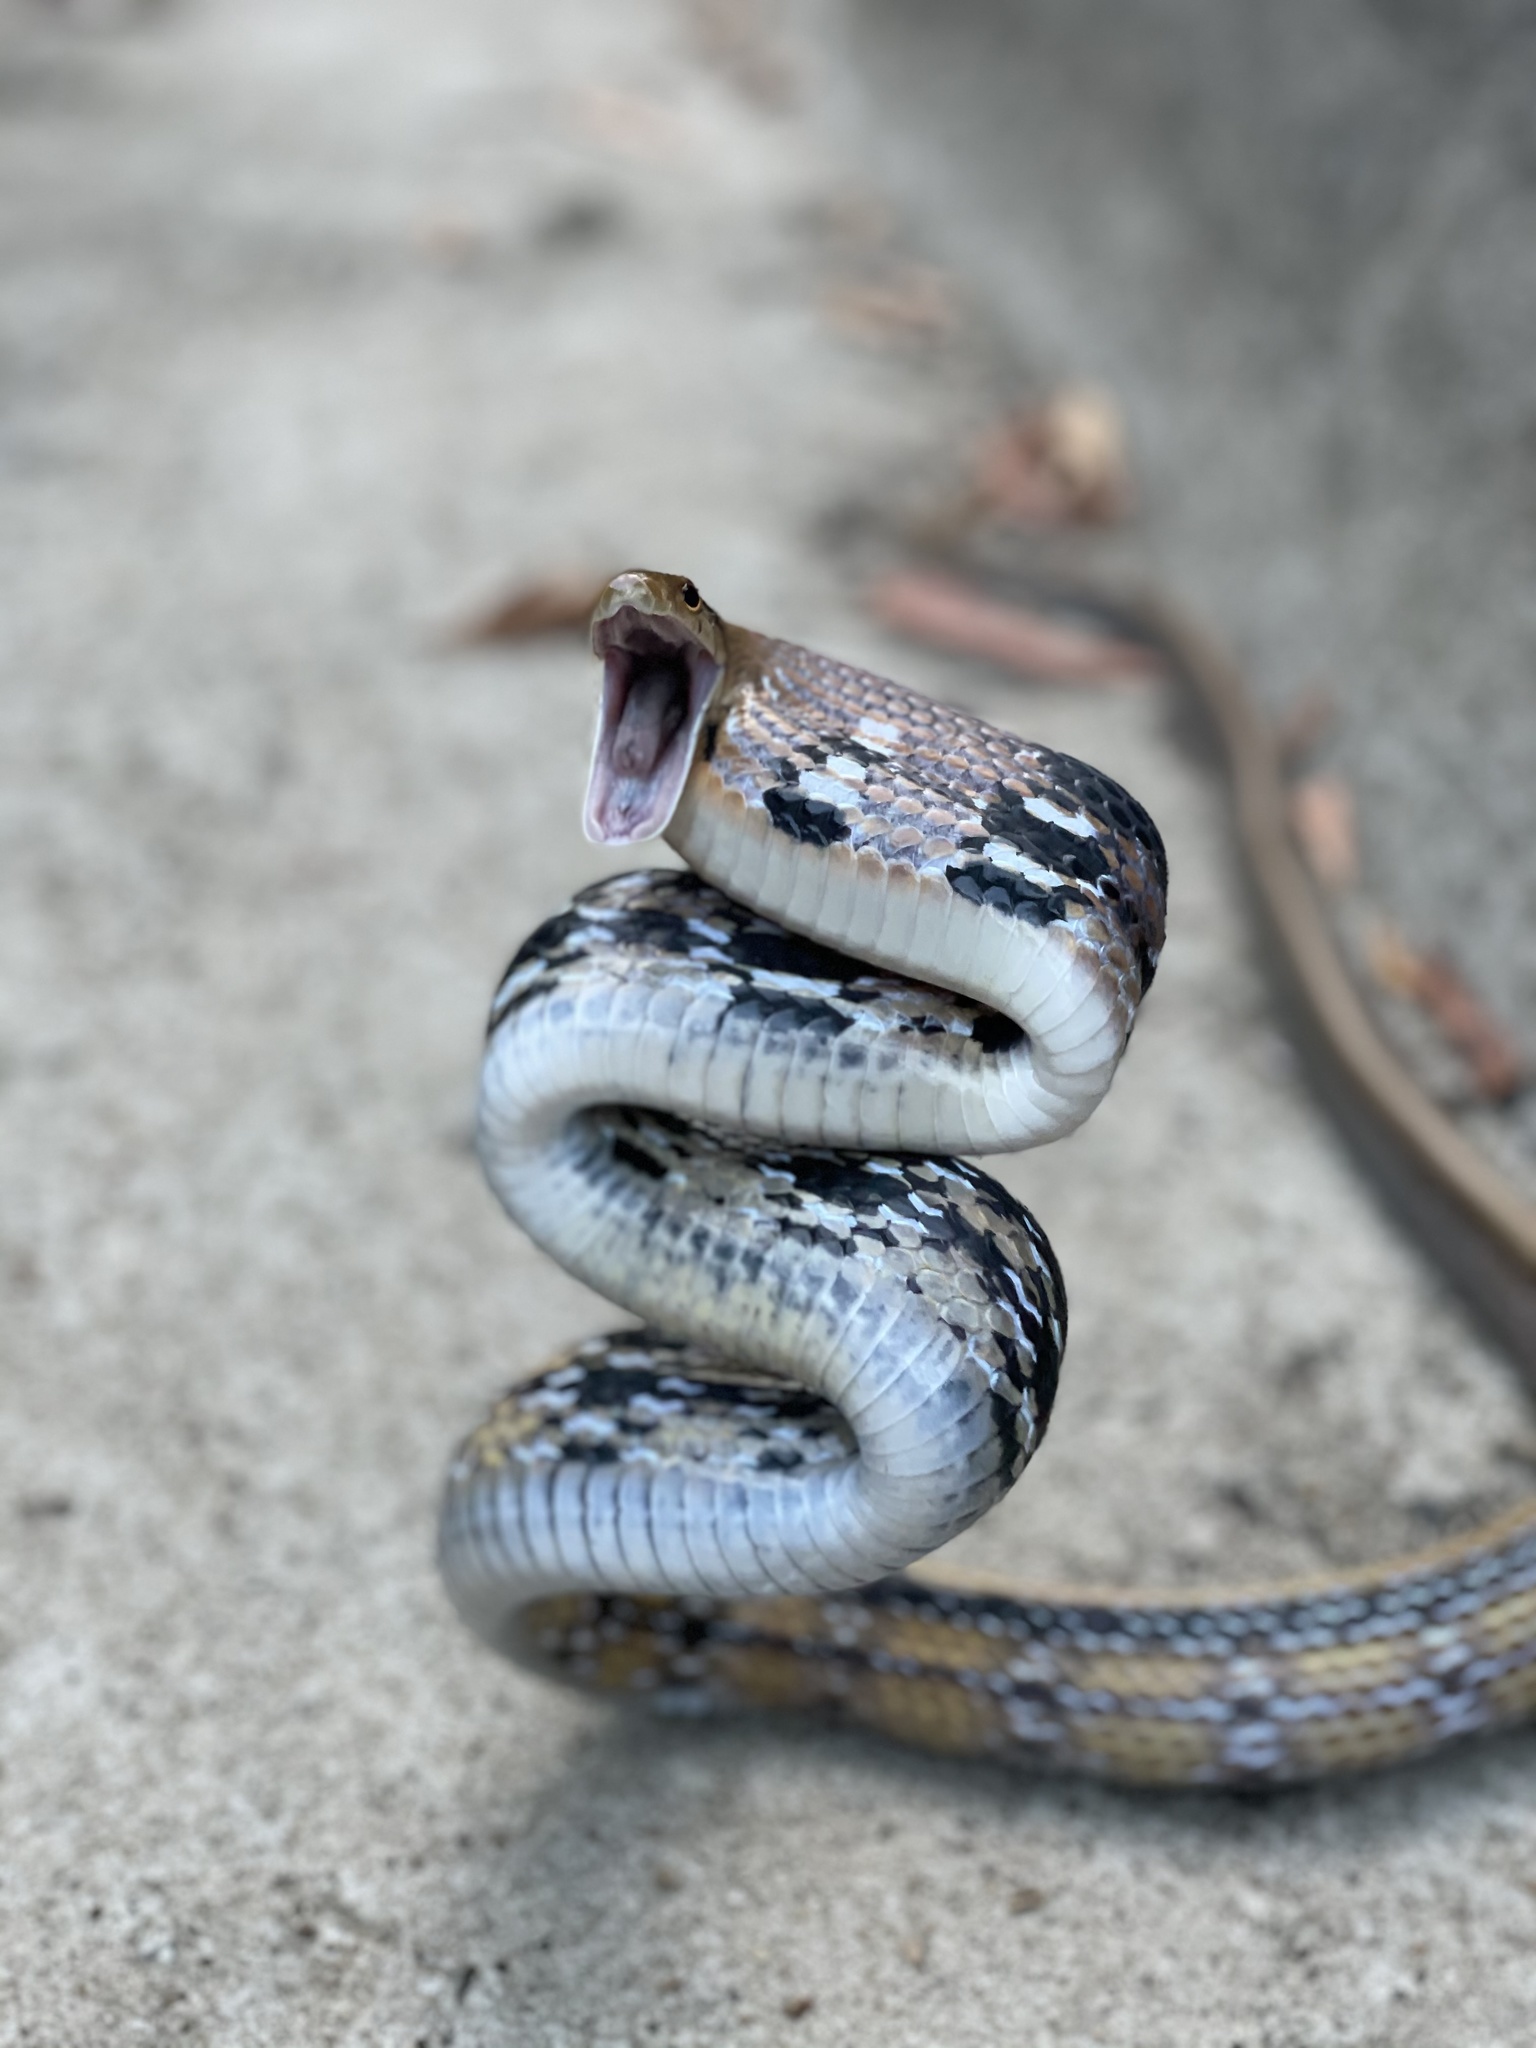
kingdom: Animalia
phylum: Chordata
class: Squamata
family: Colubridae
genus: Coelognathus
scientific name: Coelognathus radiatus
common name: Copperhead rat snake
